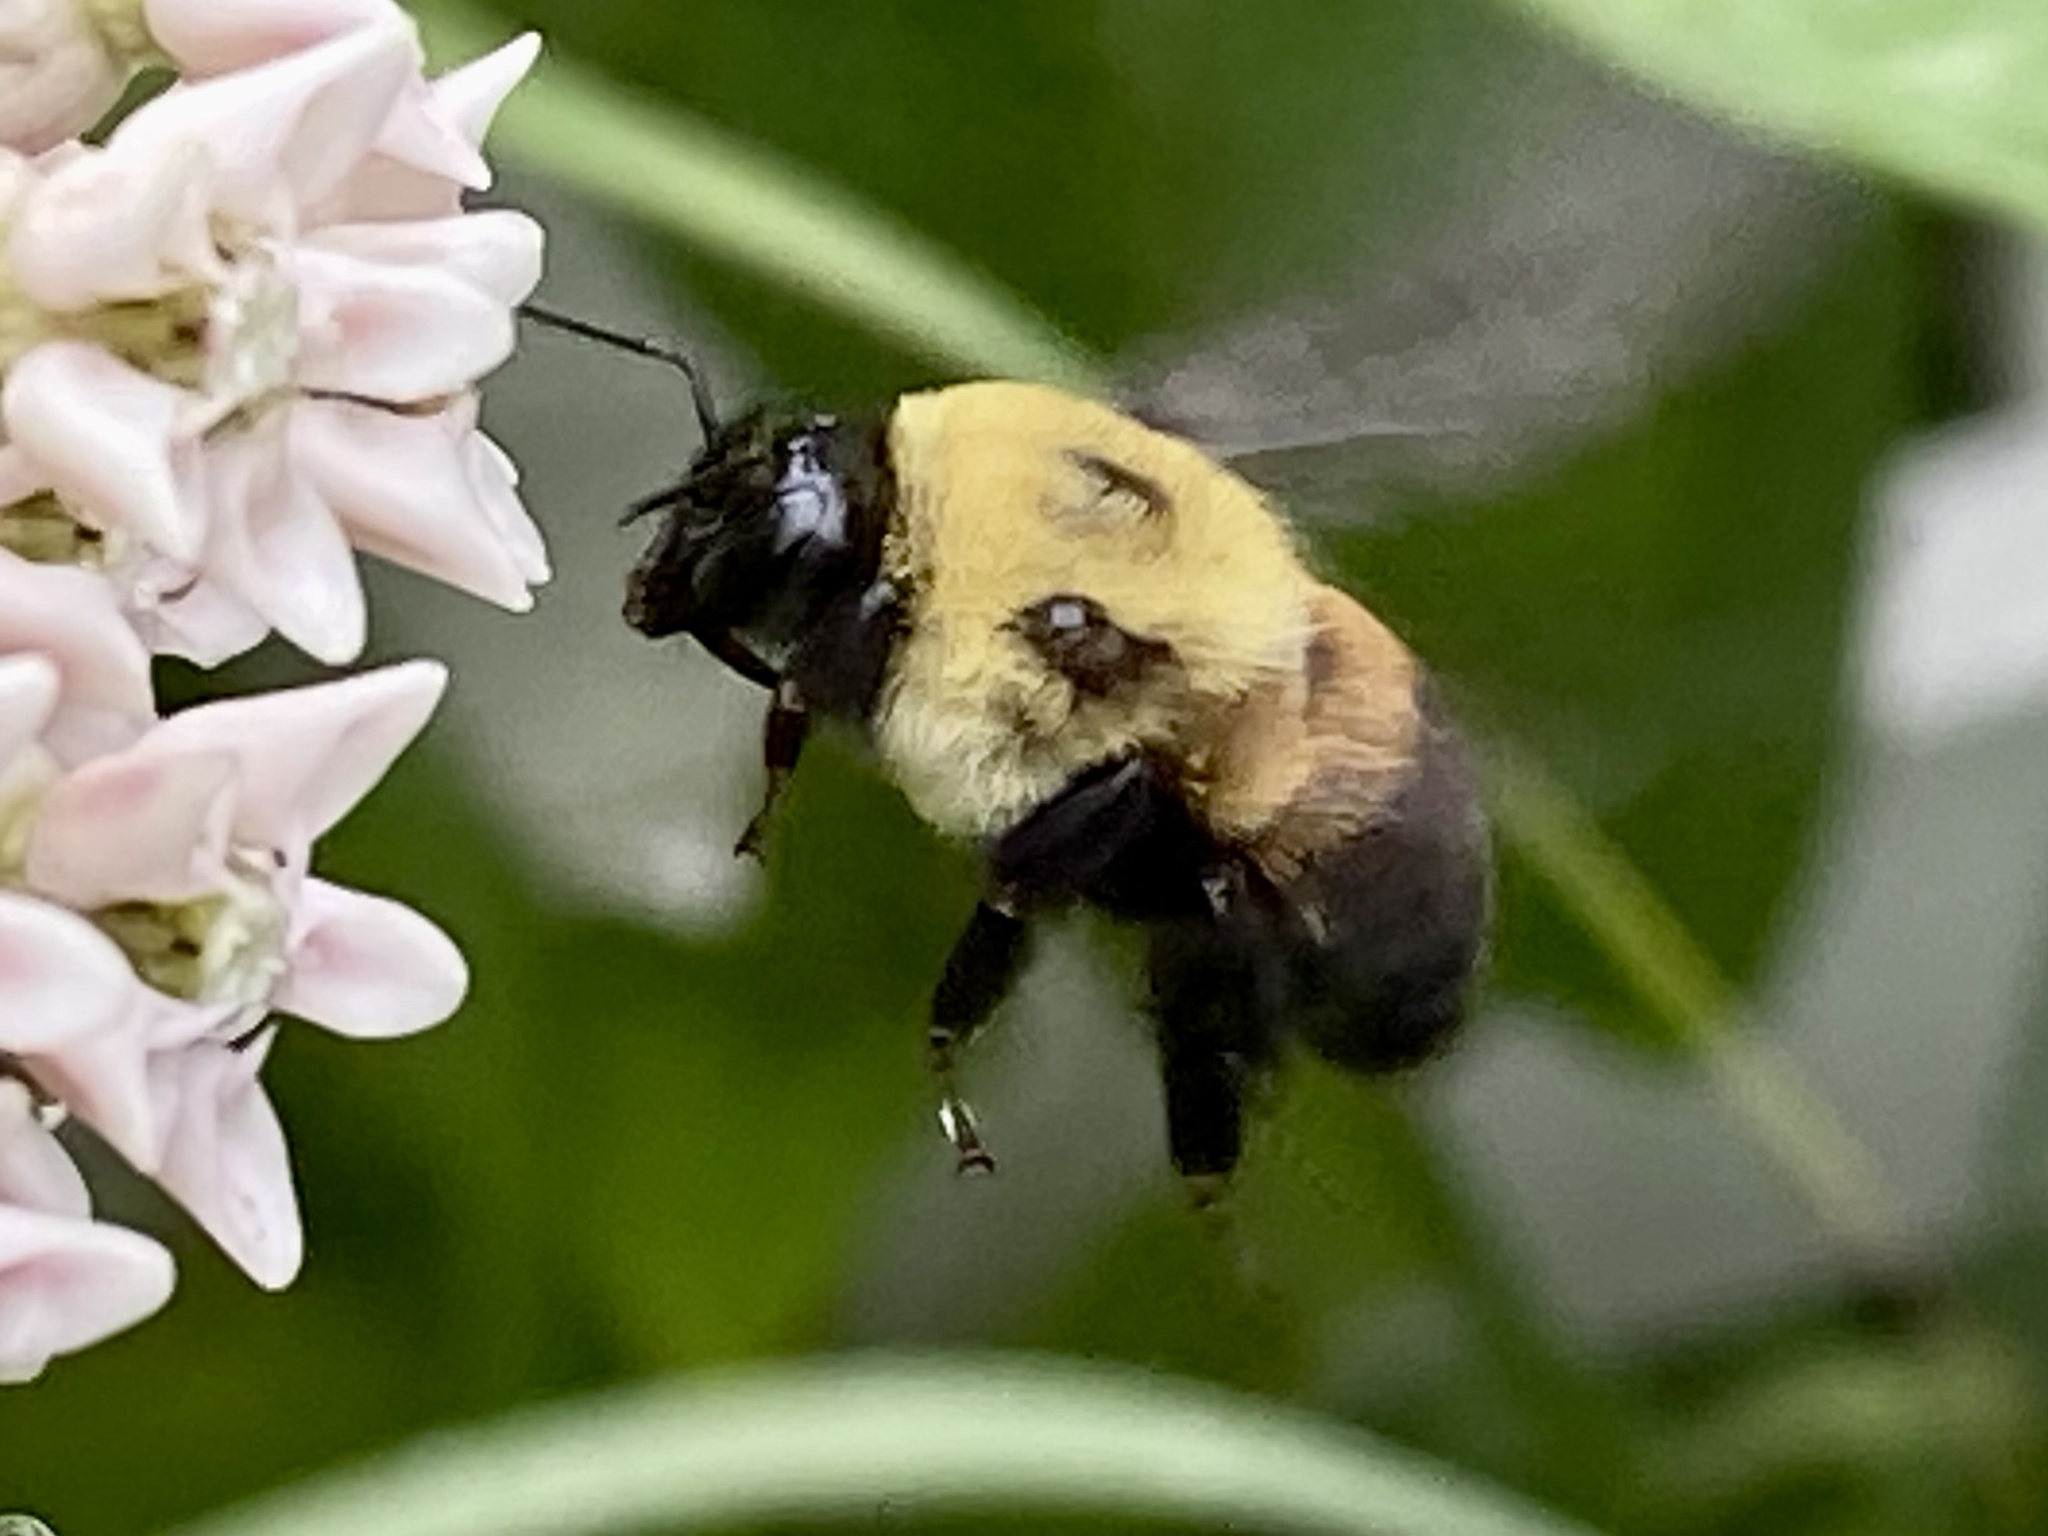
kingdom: Animalia
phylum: Arthropoda
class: Insecta
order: Hymenoptera
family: Apidae
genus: Bombus
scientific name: Bombus griseocollis
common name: Brown-belted bumble bee
